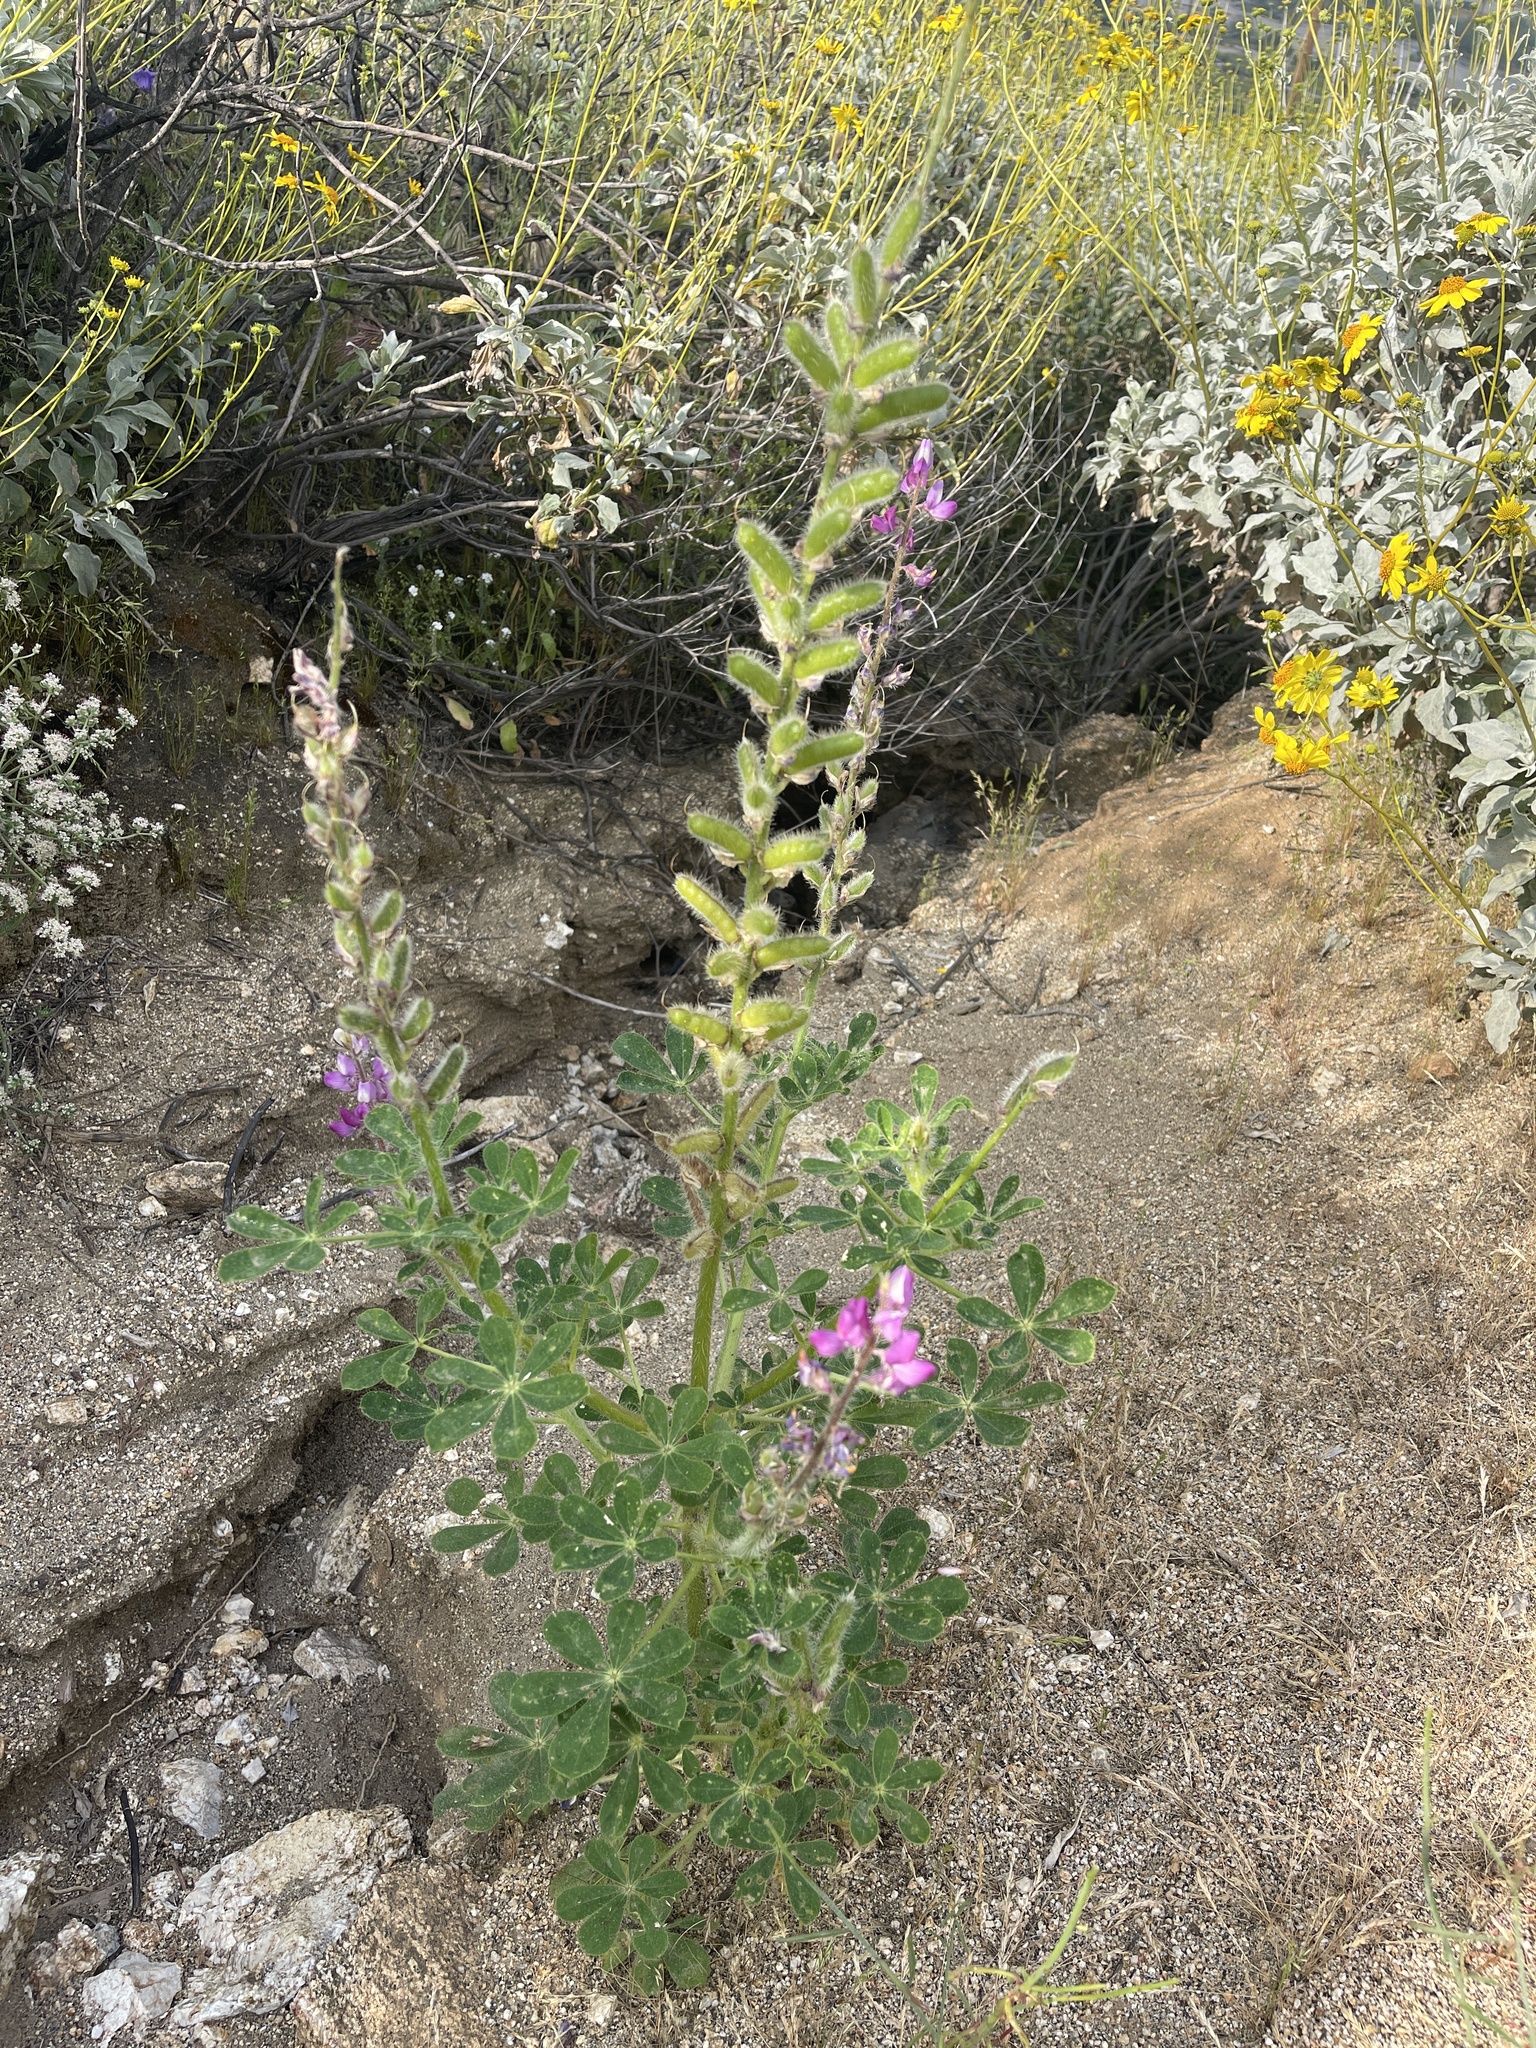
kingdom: Plantae
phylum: Tracheophyta
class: Magnoliopsida
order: Fabales
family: Fabaceae
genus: Lupinus
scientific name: Lupinus hirsutissimus
